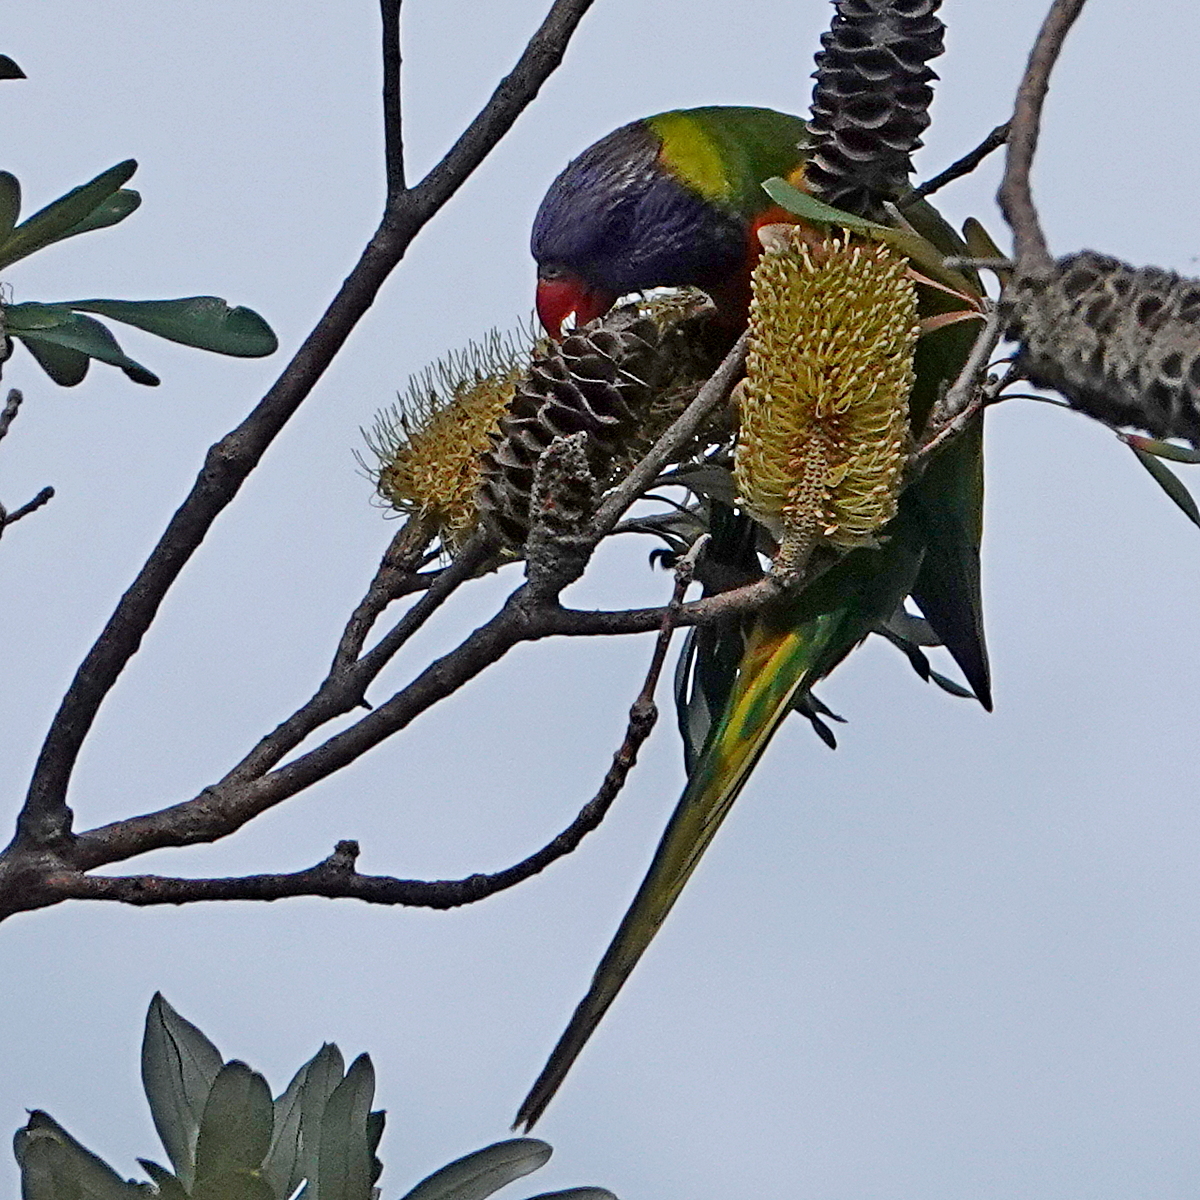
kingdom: Animalia
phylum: Chordata
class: Aves
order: Psittaciformes
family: Psittacidae
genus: Trichoglossus
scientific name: Trichoglossus haematodus
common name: Coconut lorikeet
